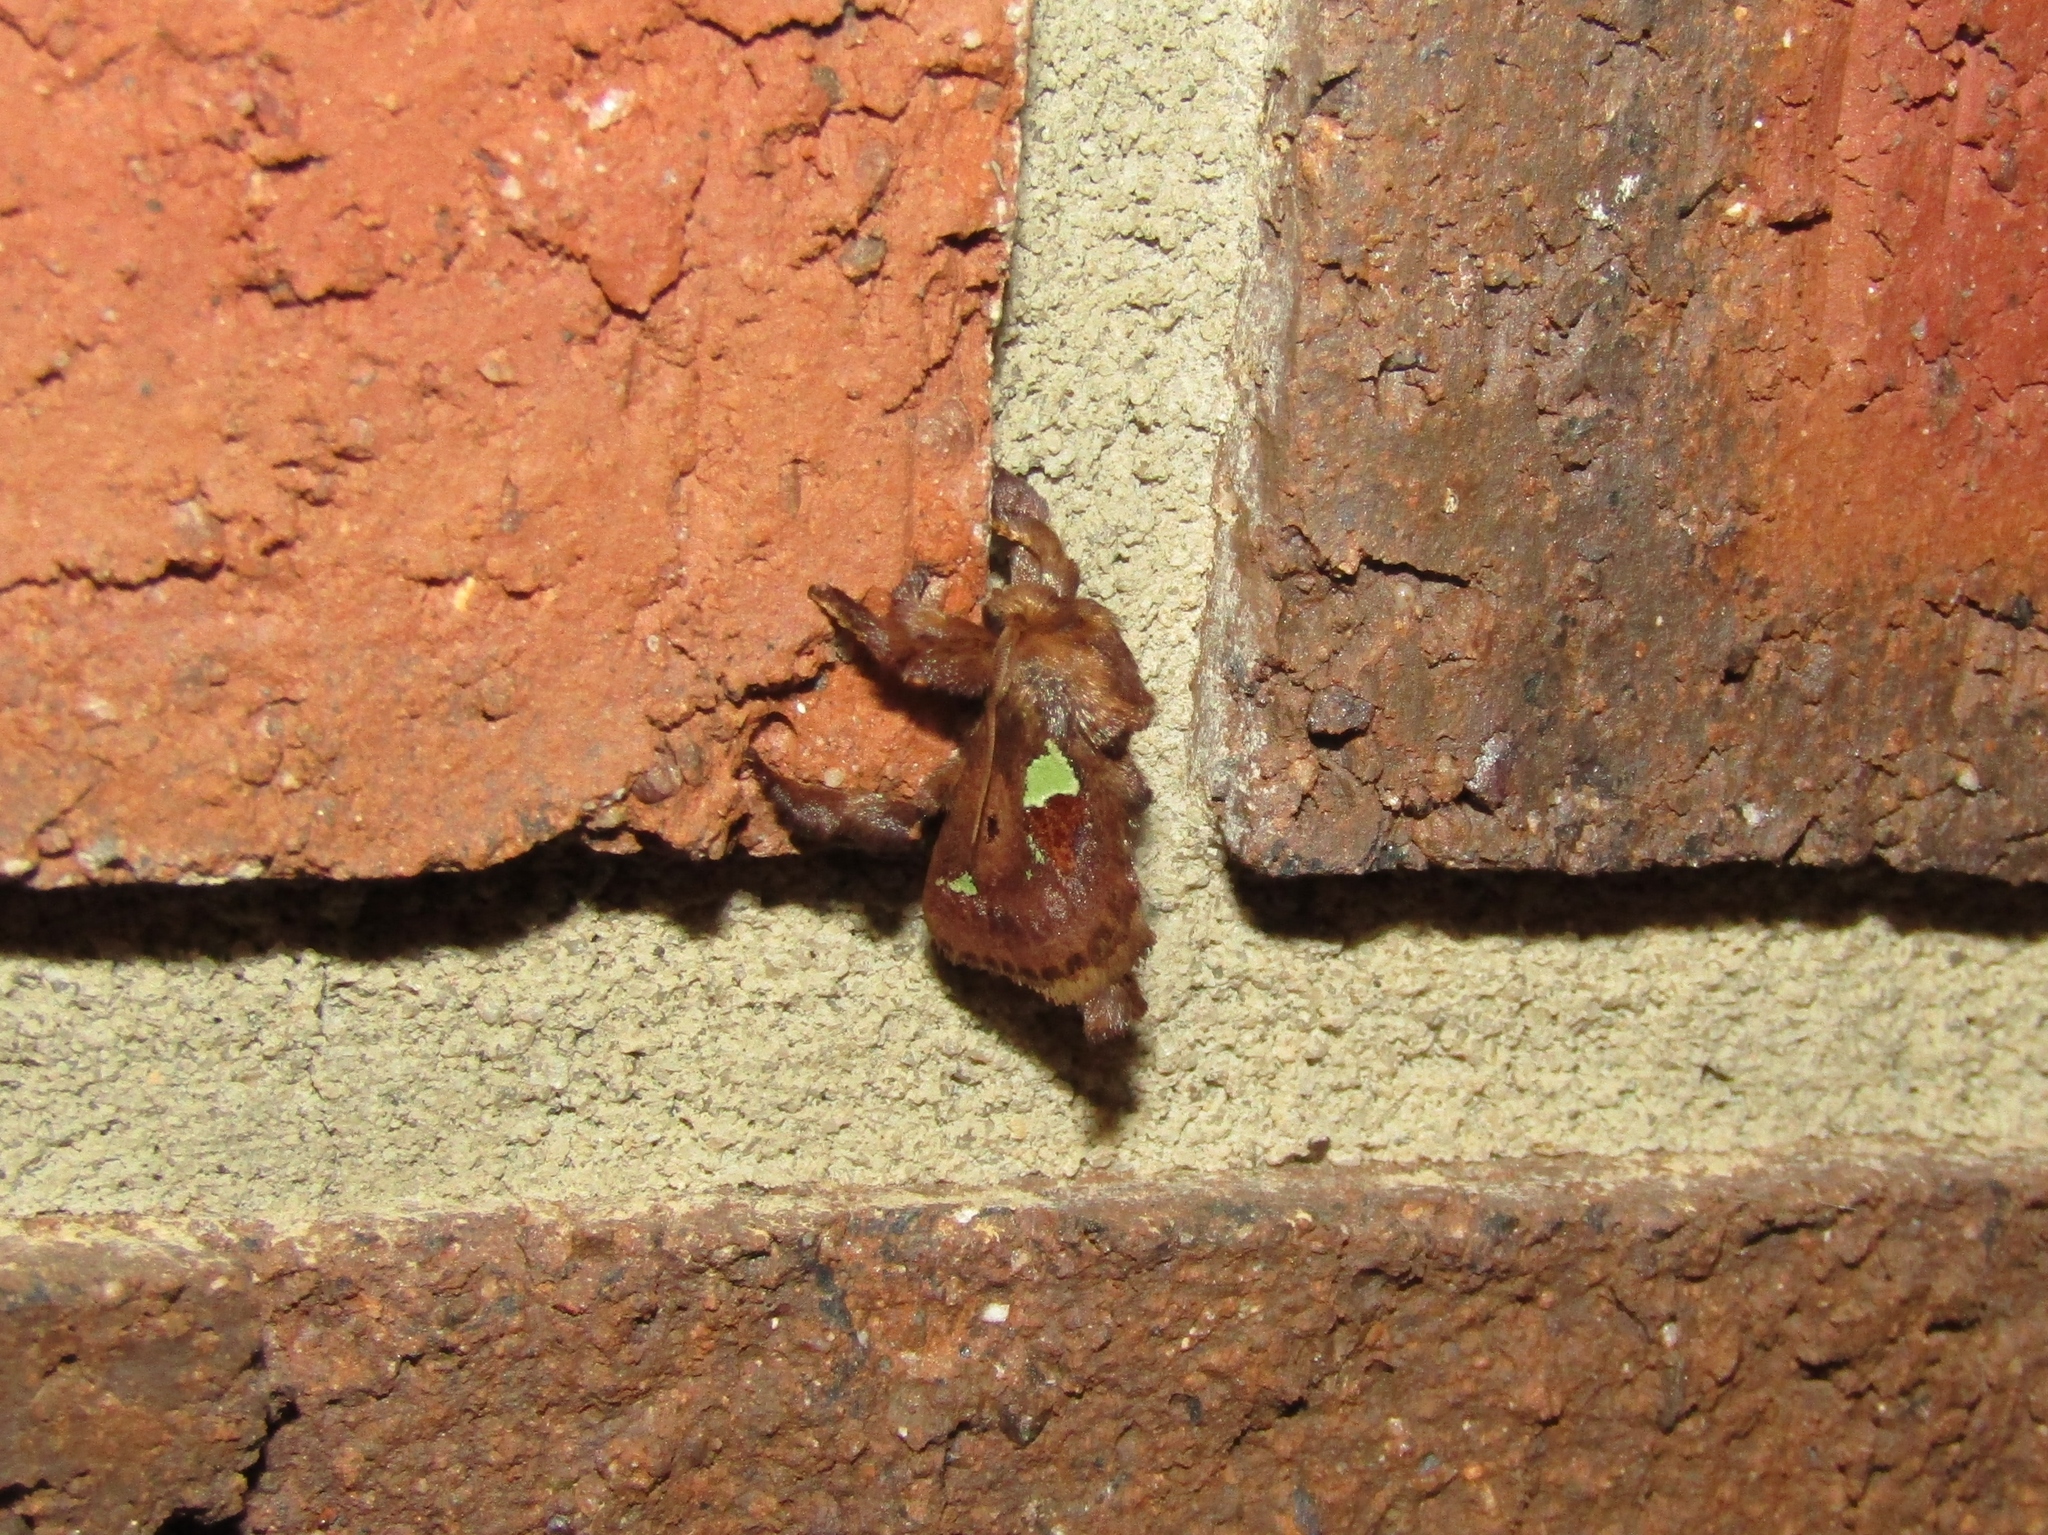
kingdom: Animalia
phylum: Arthropoda
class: Insecta
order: Lepidoptera
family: Limacodidae
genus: Euclea
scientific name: Euclea delphinii
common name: Spiny oak-slug moth
